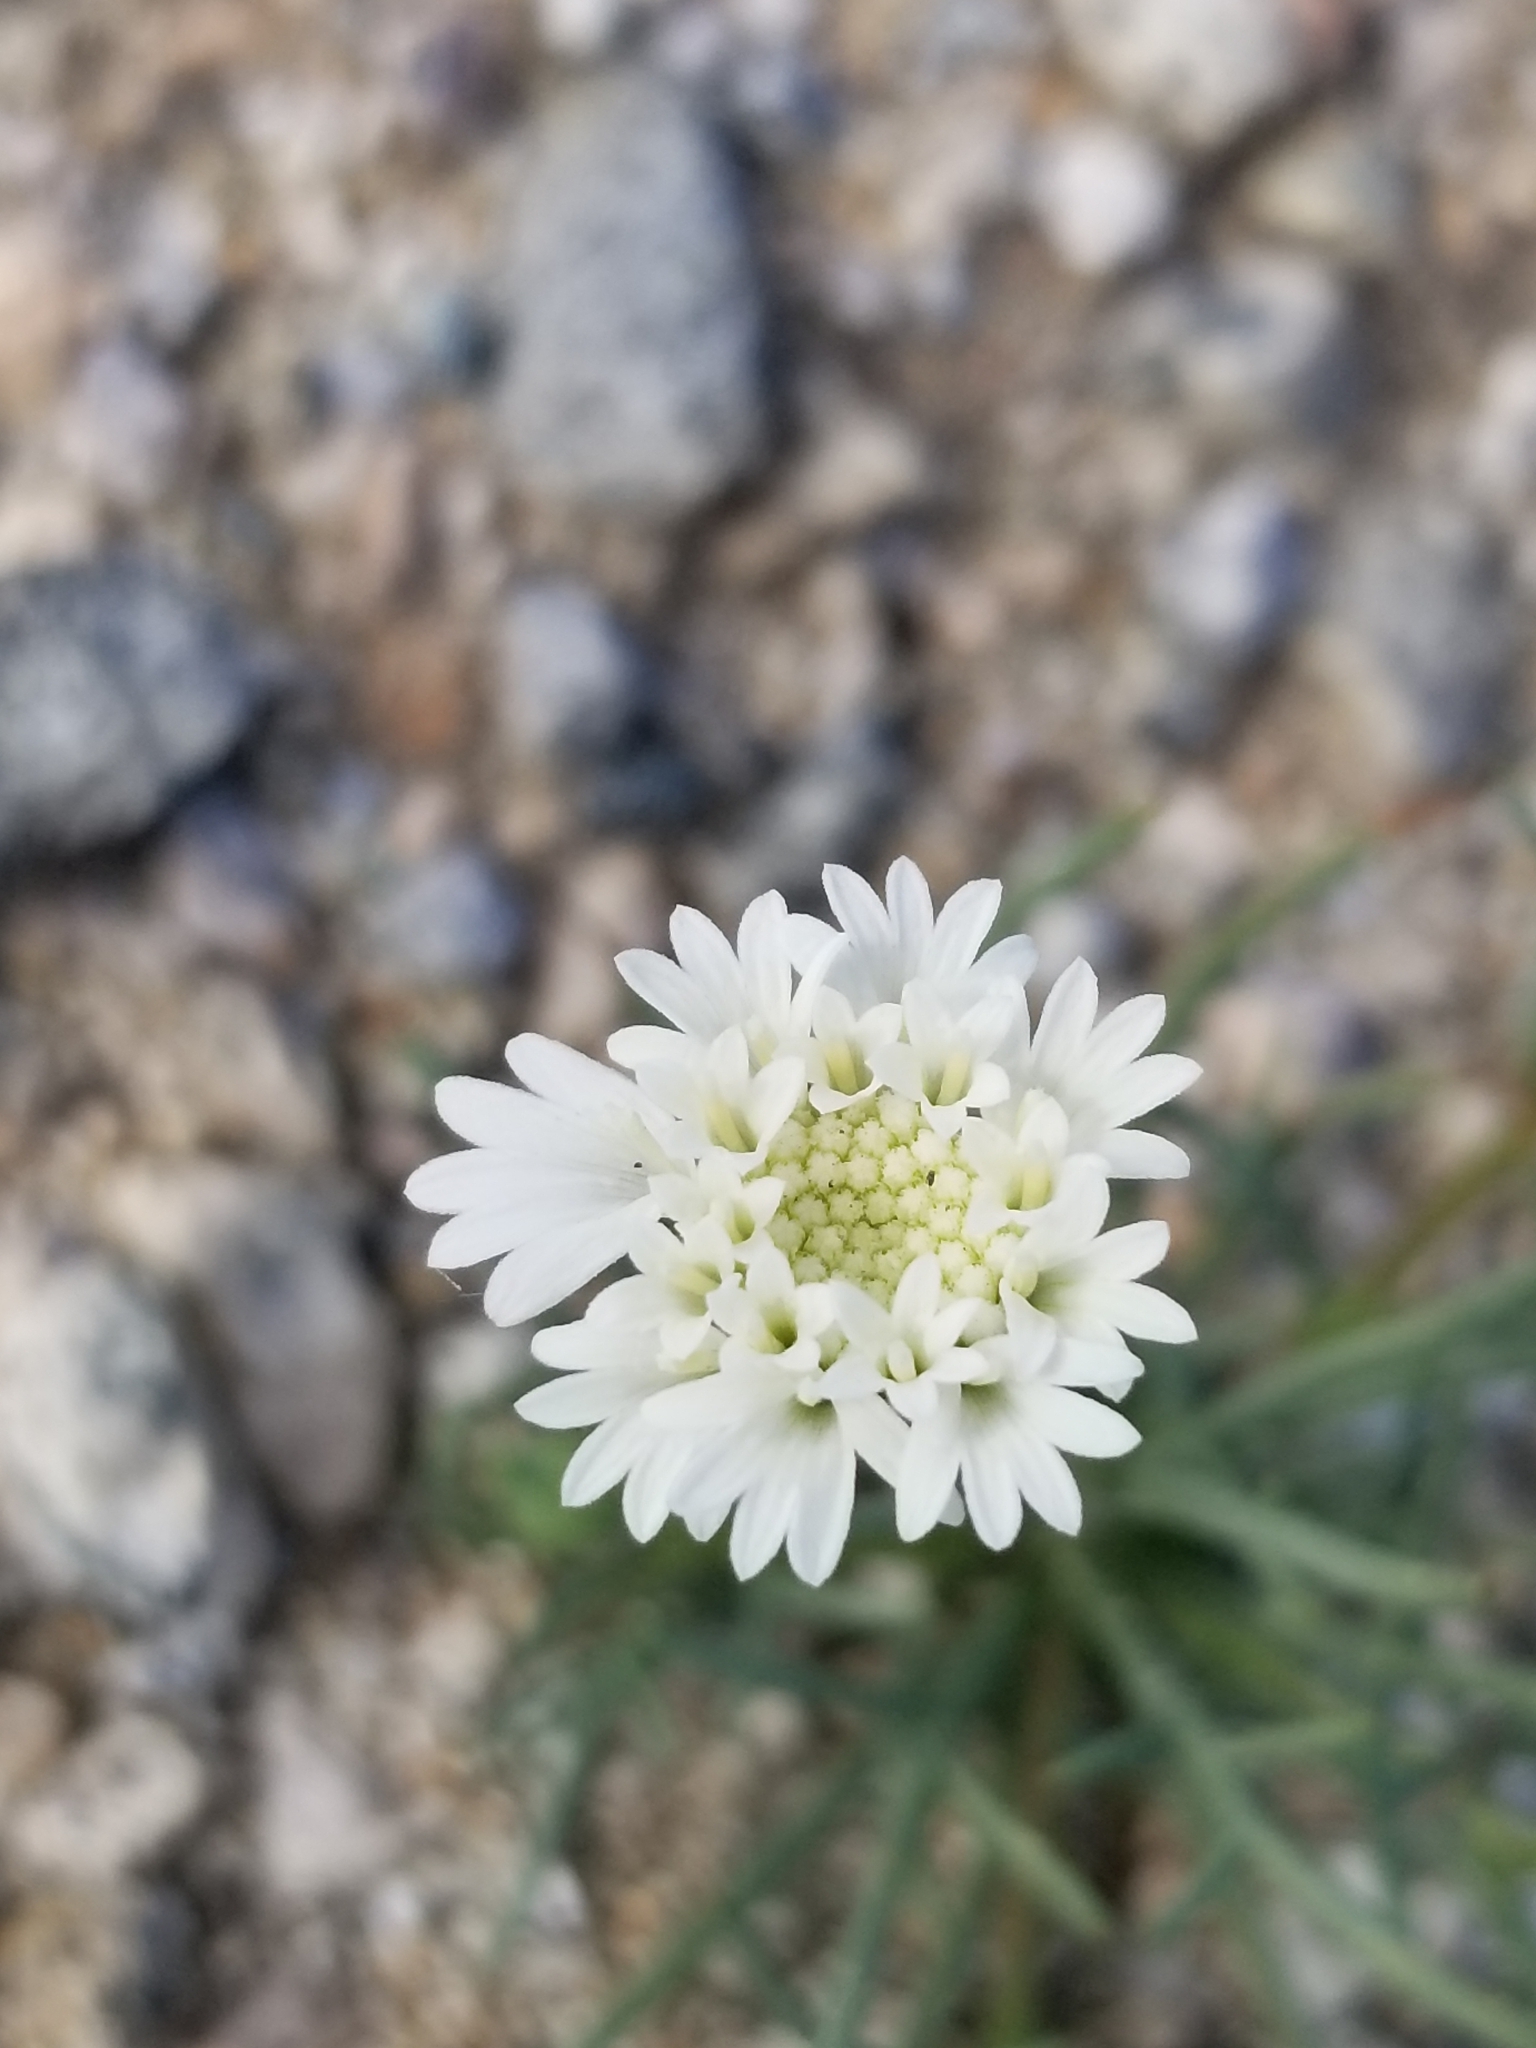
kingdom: Plantae
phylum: Tracheophyta
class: Magnoliopsida
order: Asterales
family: Asteraceae
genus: Chaenactis
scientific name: Chaenactis fremontii
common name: Fremont pincushion
